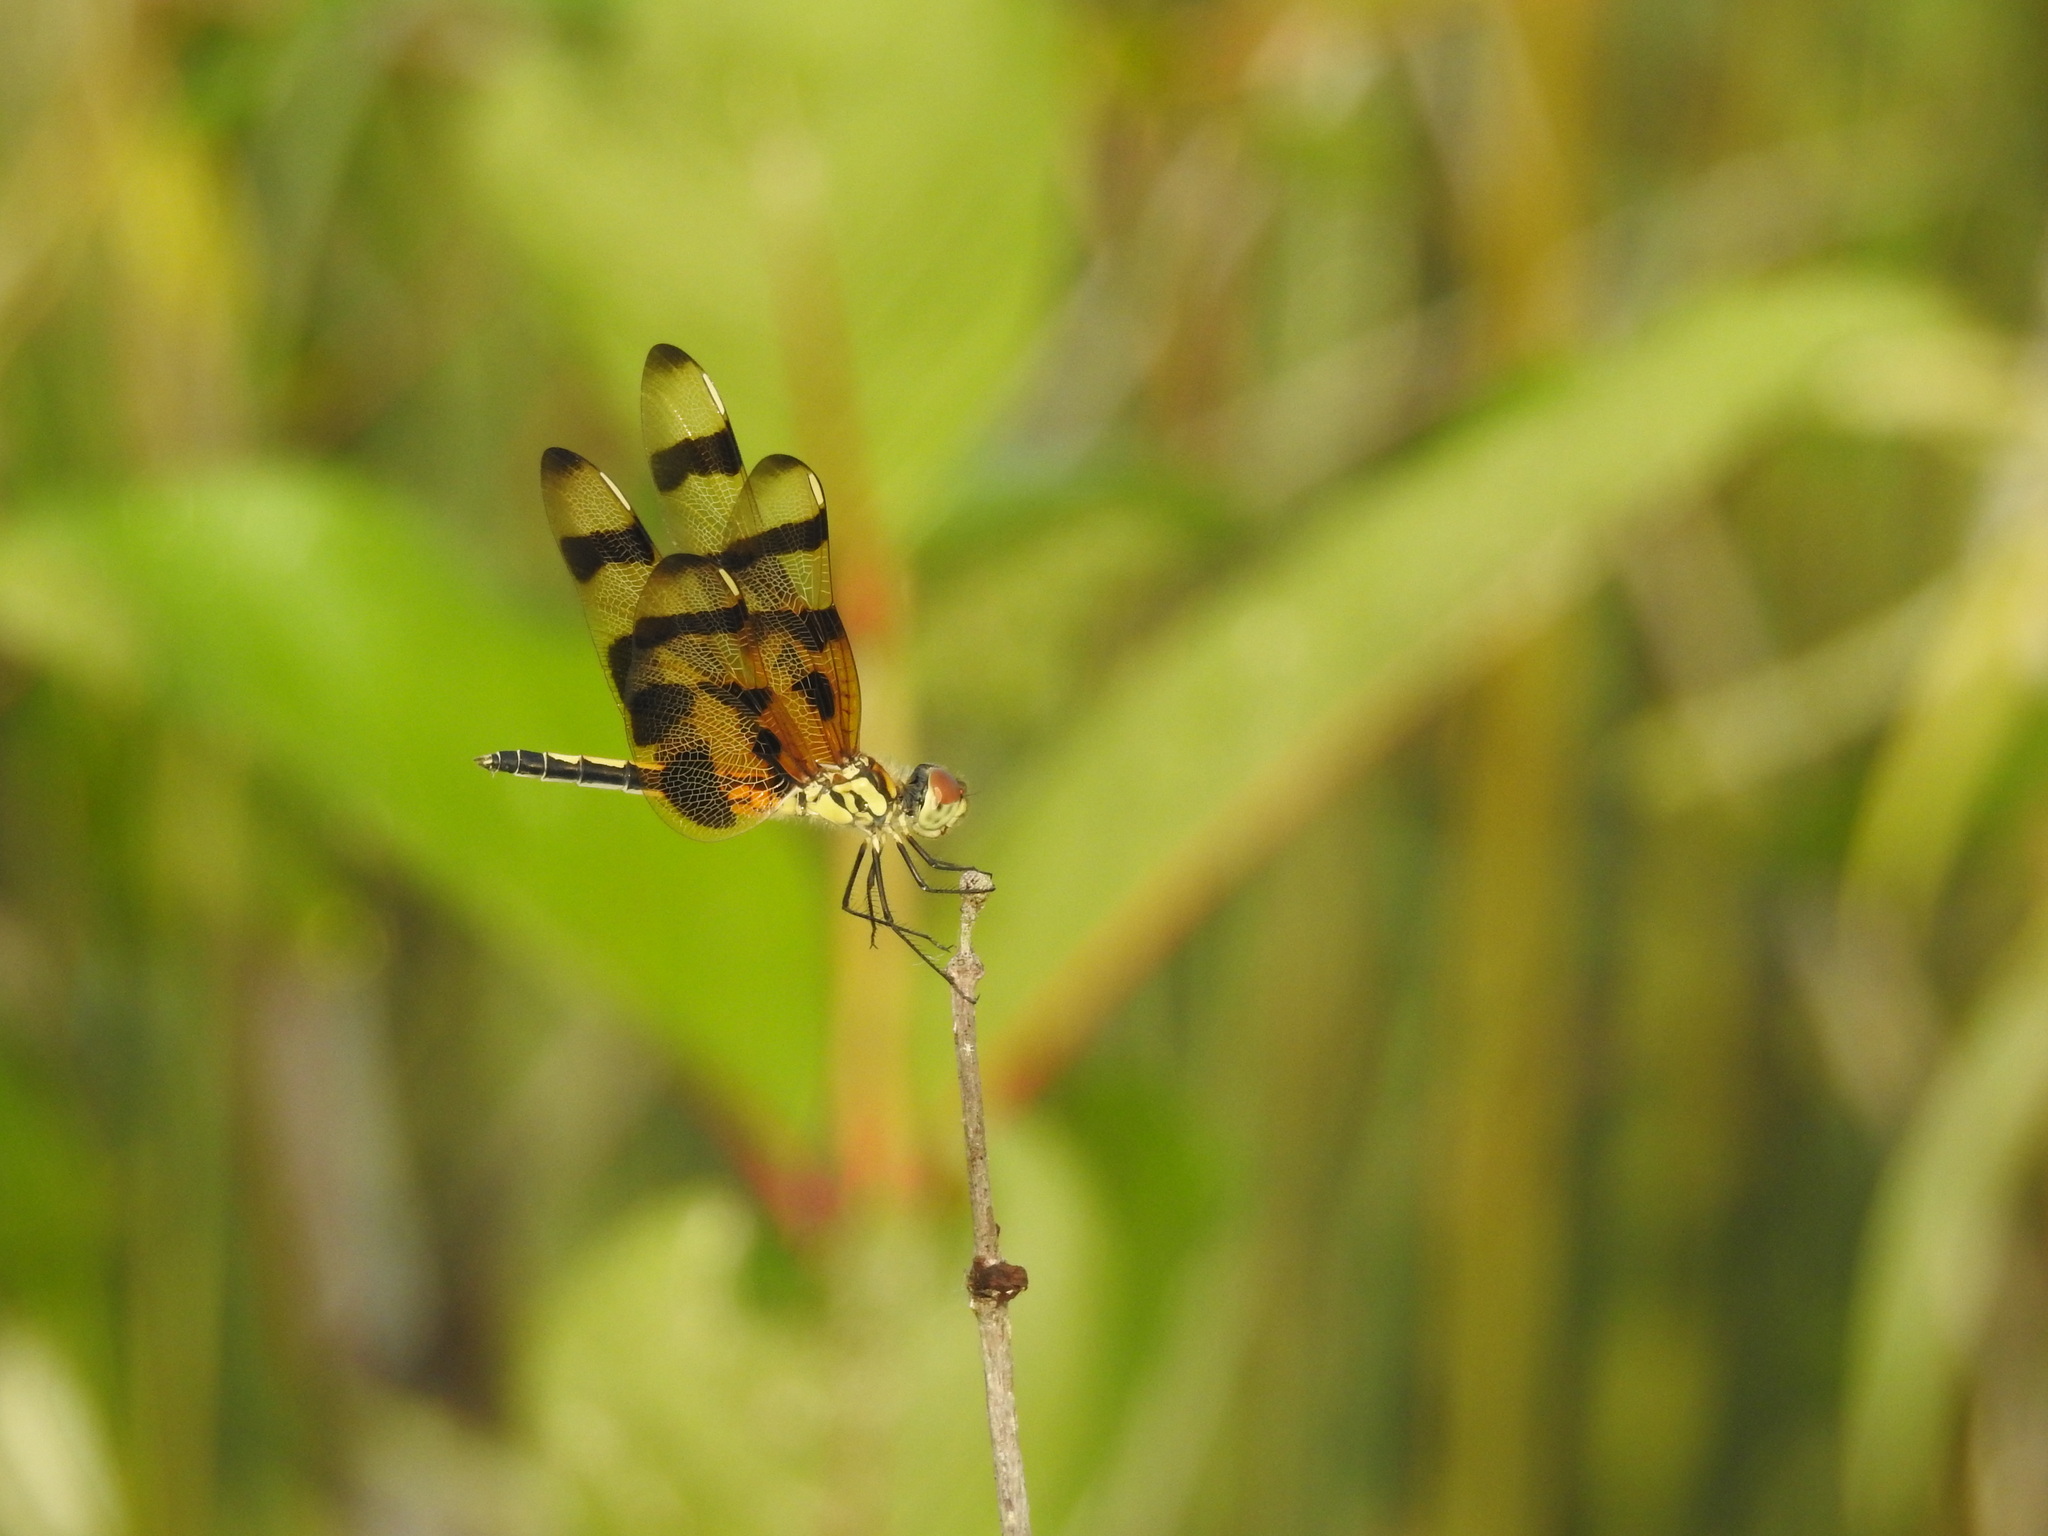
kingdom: Animalia
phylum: Arthropoda
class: Insecta
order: Odonata
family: Libellulidae
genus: Celithemis
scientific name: Celithemis eponina
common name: Halloween pennant
